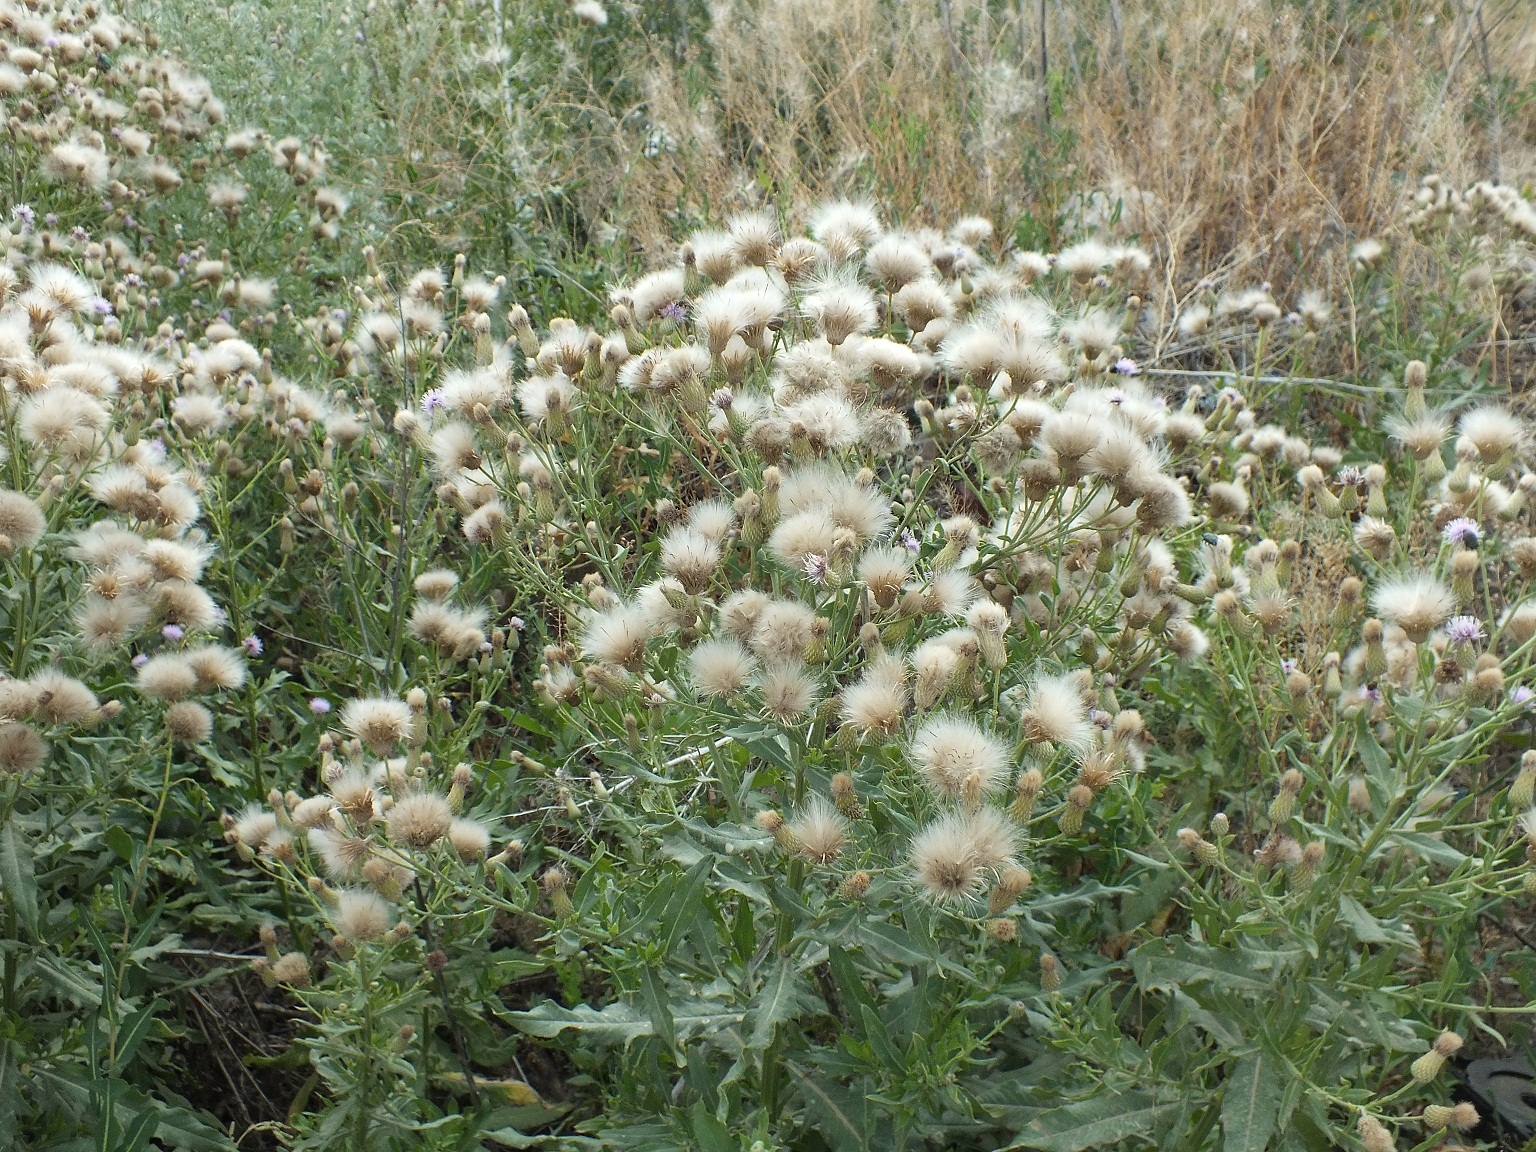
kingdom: Plantae
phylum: Tracheophyta
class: Magnoliopsida
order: Asterales
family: Asteraceae
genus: Cirsium
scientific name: Cirsium arvense
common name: Creeping thistle
